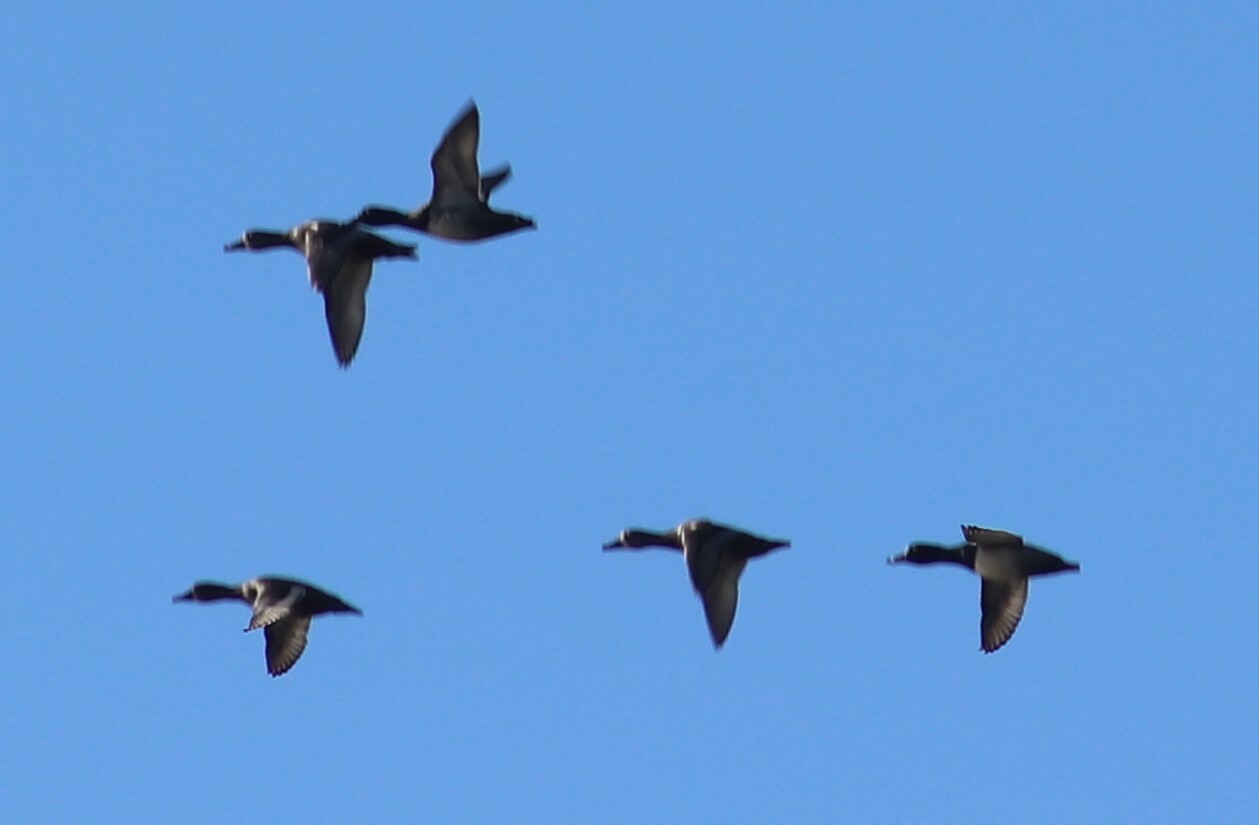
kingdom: Animalia
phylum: Chordata
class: Aves
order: Anseriformes
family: Anatidae
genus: Aythya
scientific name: Aythya collaris
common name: Ring-necked duck
